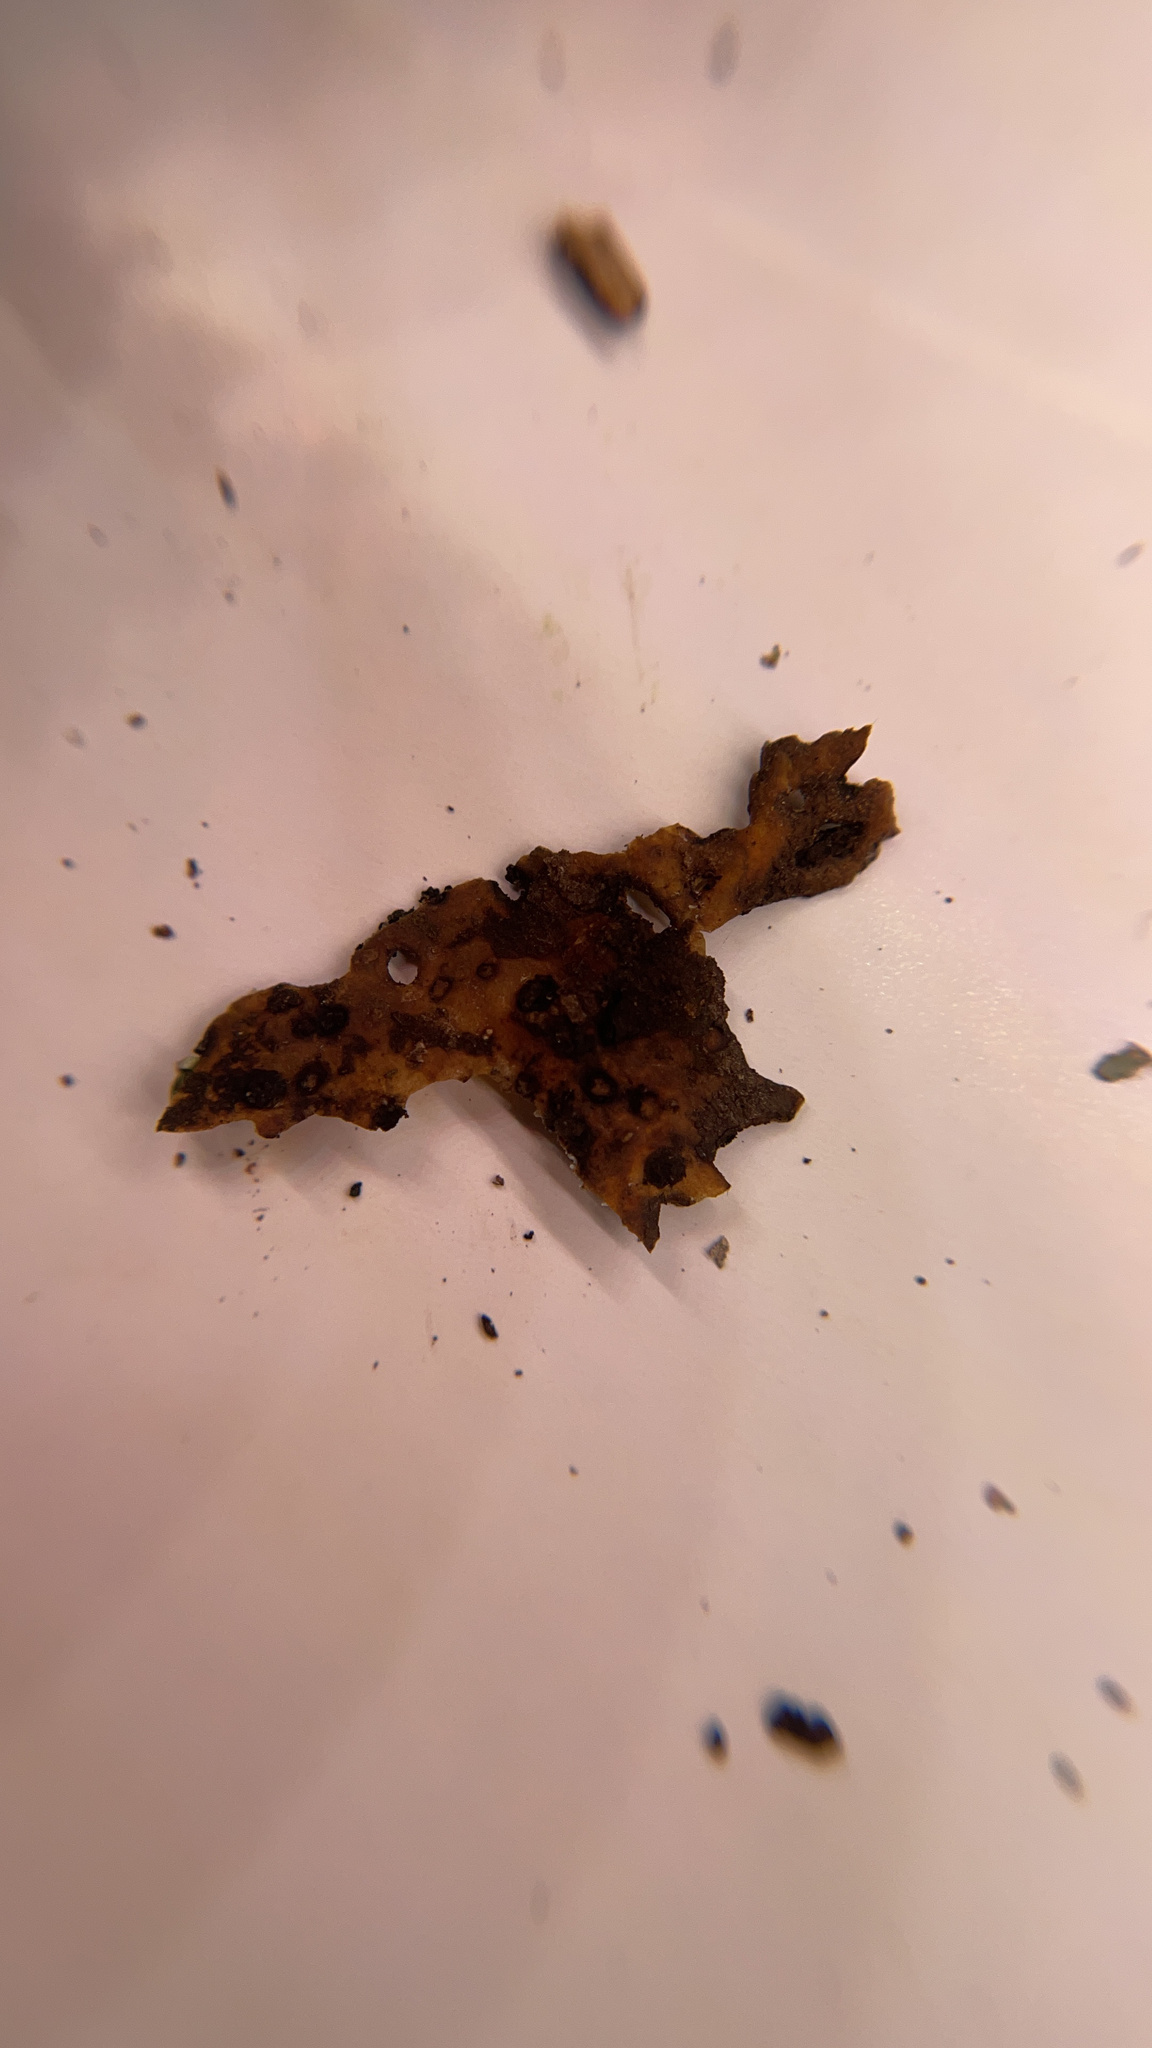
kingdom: Fungi
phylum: Ascomycota
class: Lecanoromycetes
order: Pertusariales
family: Ochrolechiaceae
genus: Ochrolechia
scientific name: Ochrolechia africana
